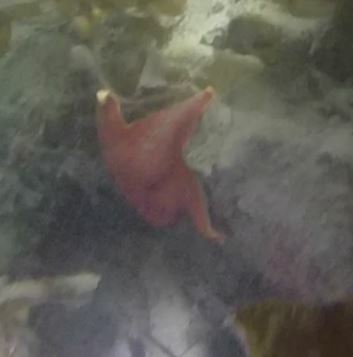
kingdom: Animalia
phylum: Echinodermata
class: Asteroidea
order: Valvatida
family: Asterinidae
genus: Patiria
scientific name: Patiria miniata
